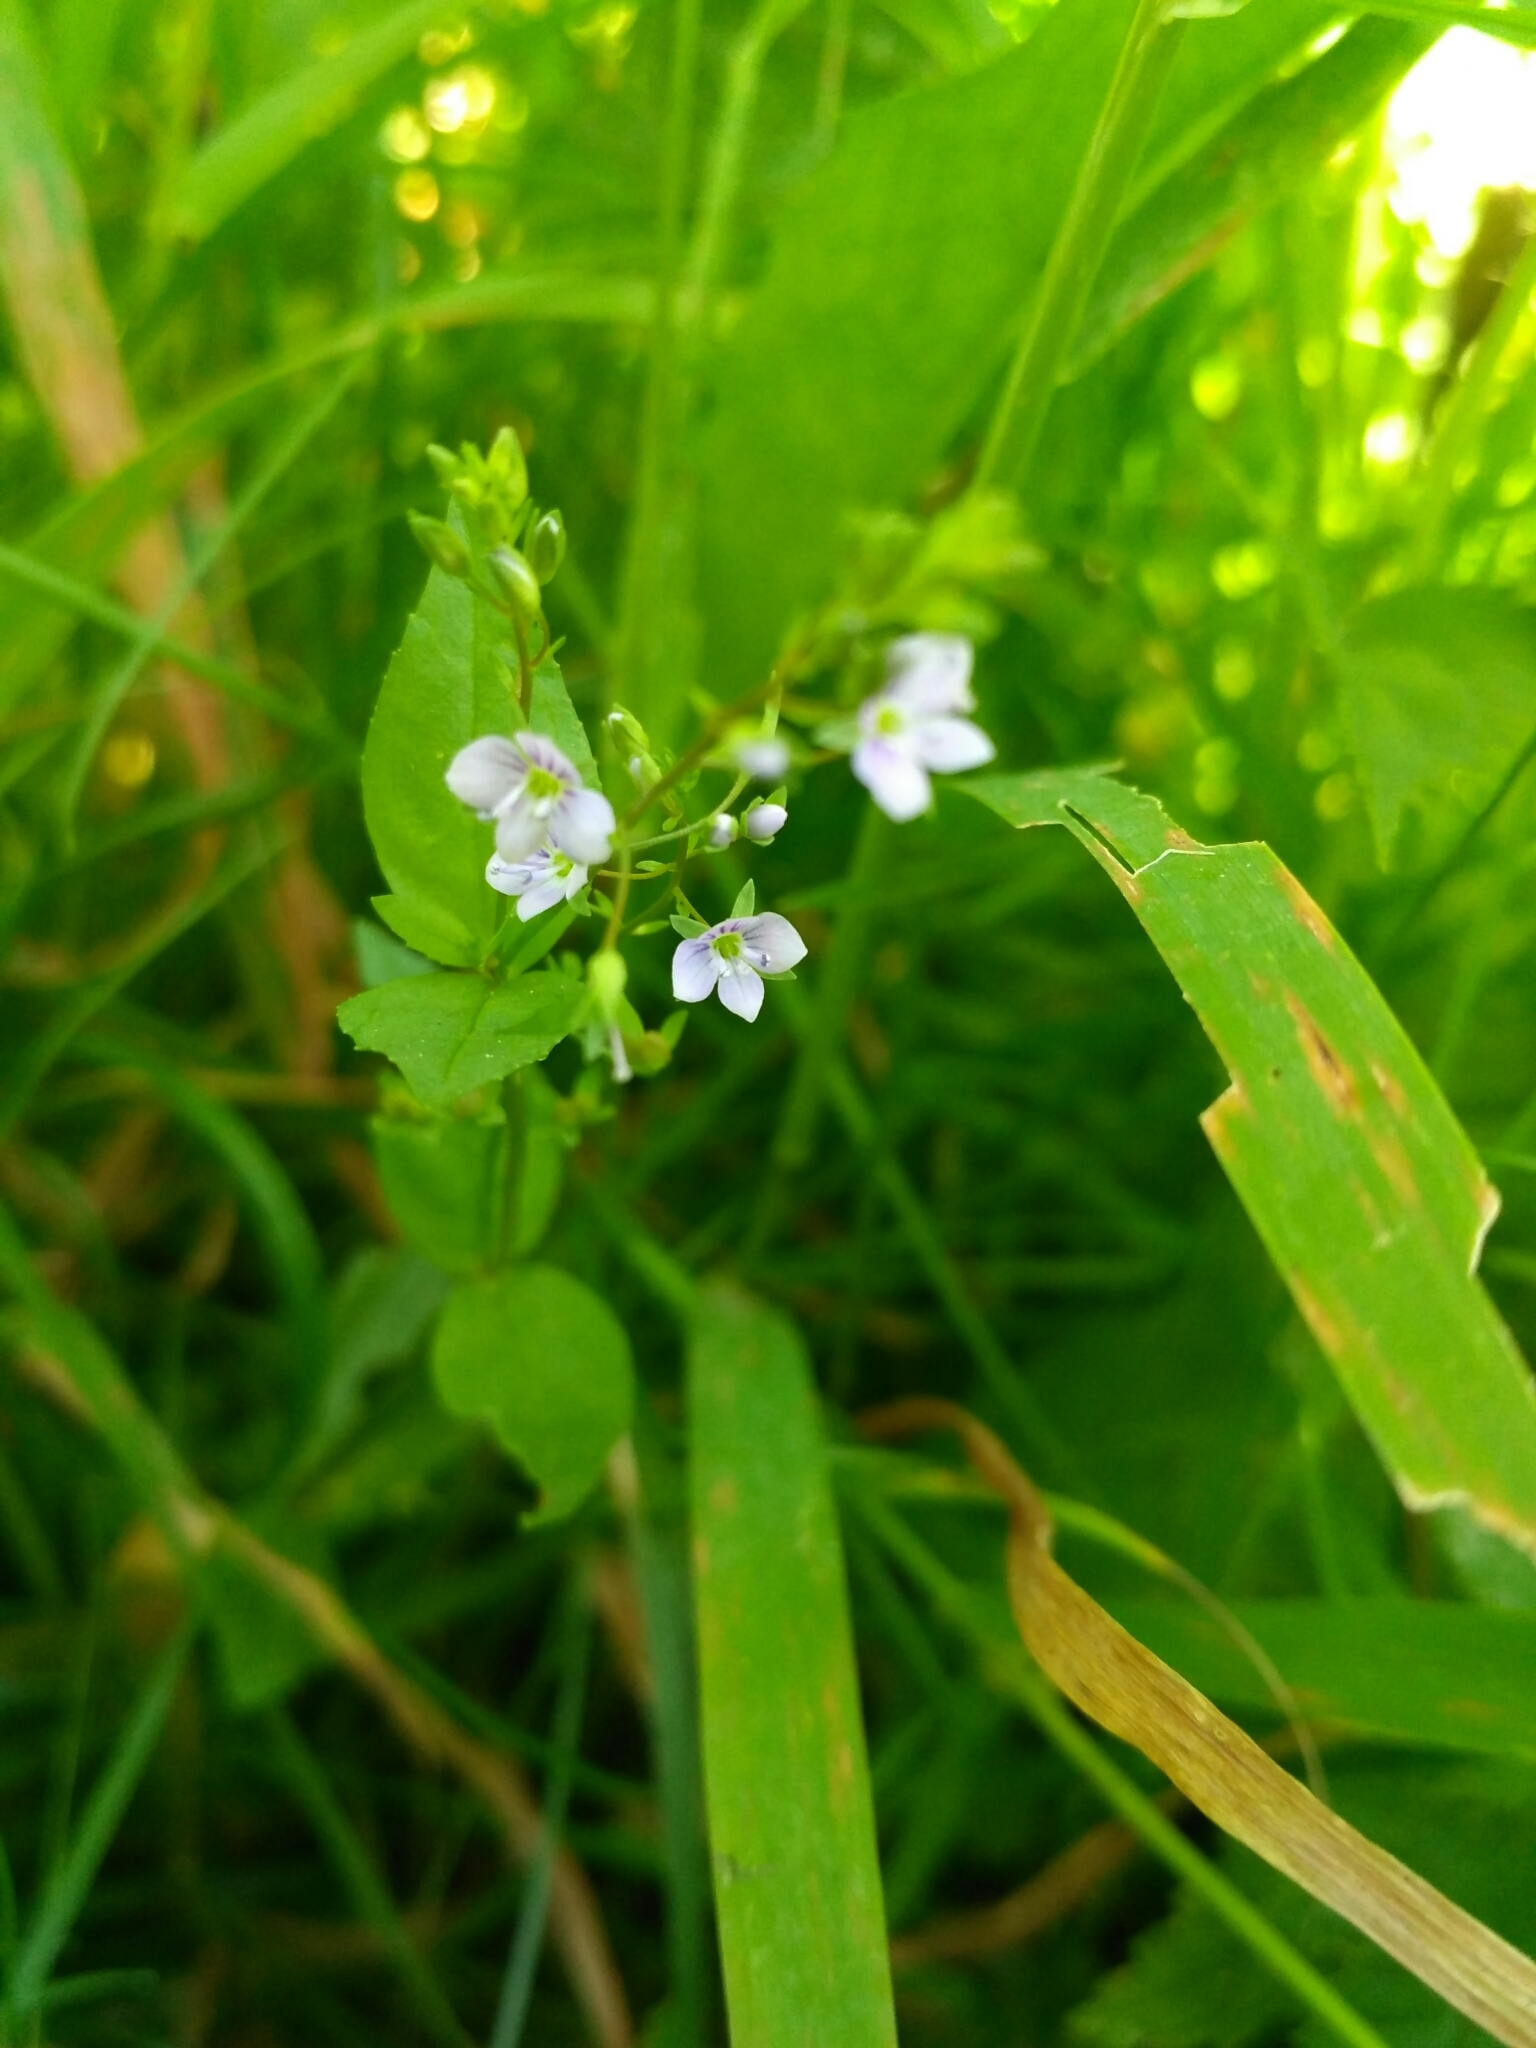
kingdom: Plantae
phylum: Tracheophyta
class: Magnoliopsida
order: Lamiales
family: Plantaginaceae
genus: Veronica
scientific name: Veronica anagallis-aquatica
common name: Water speedwell
